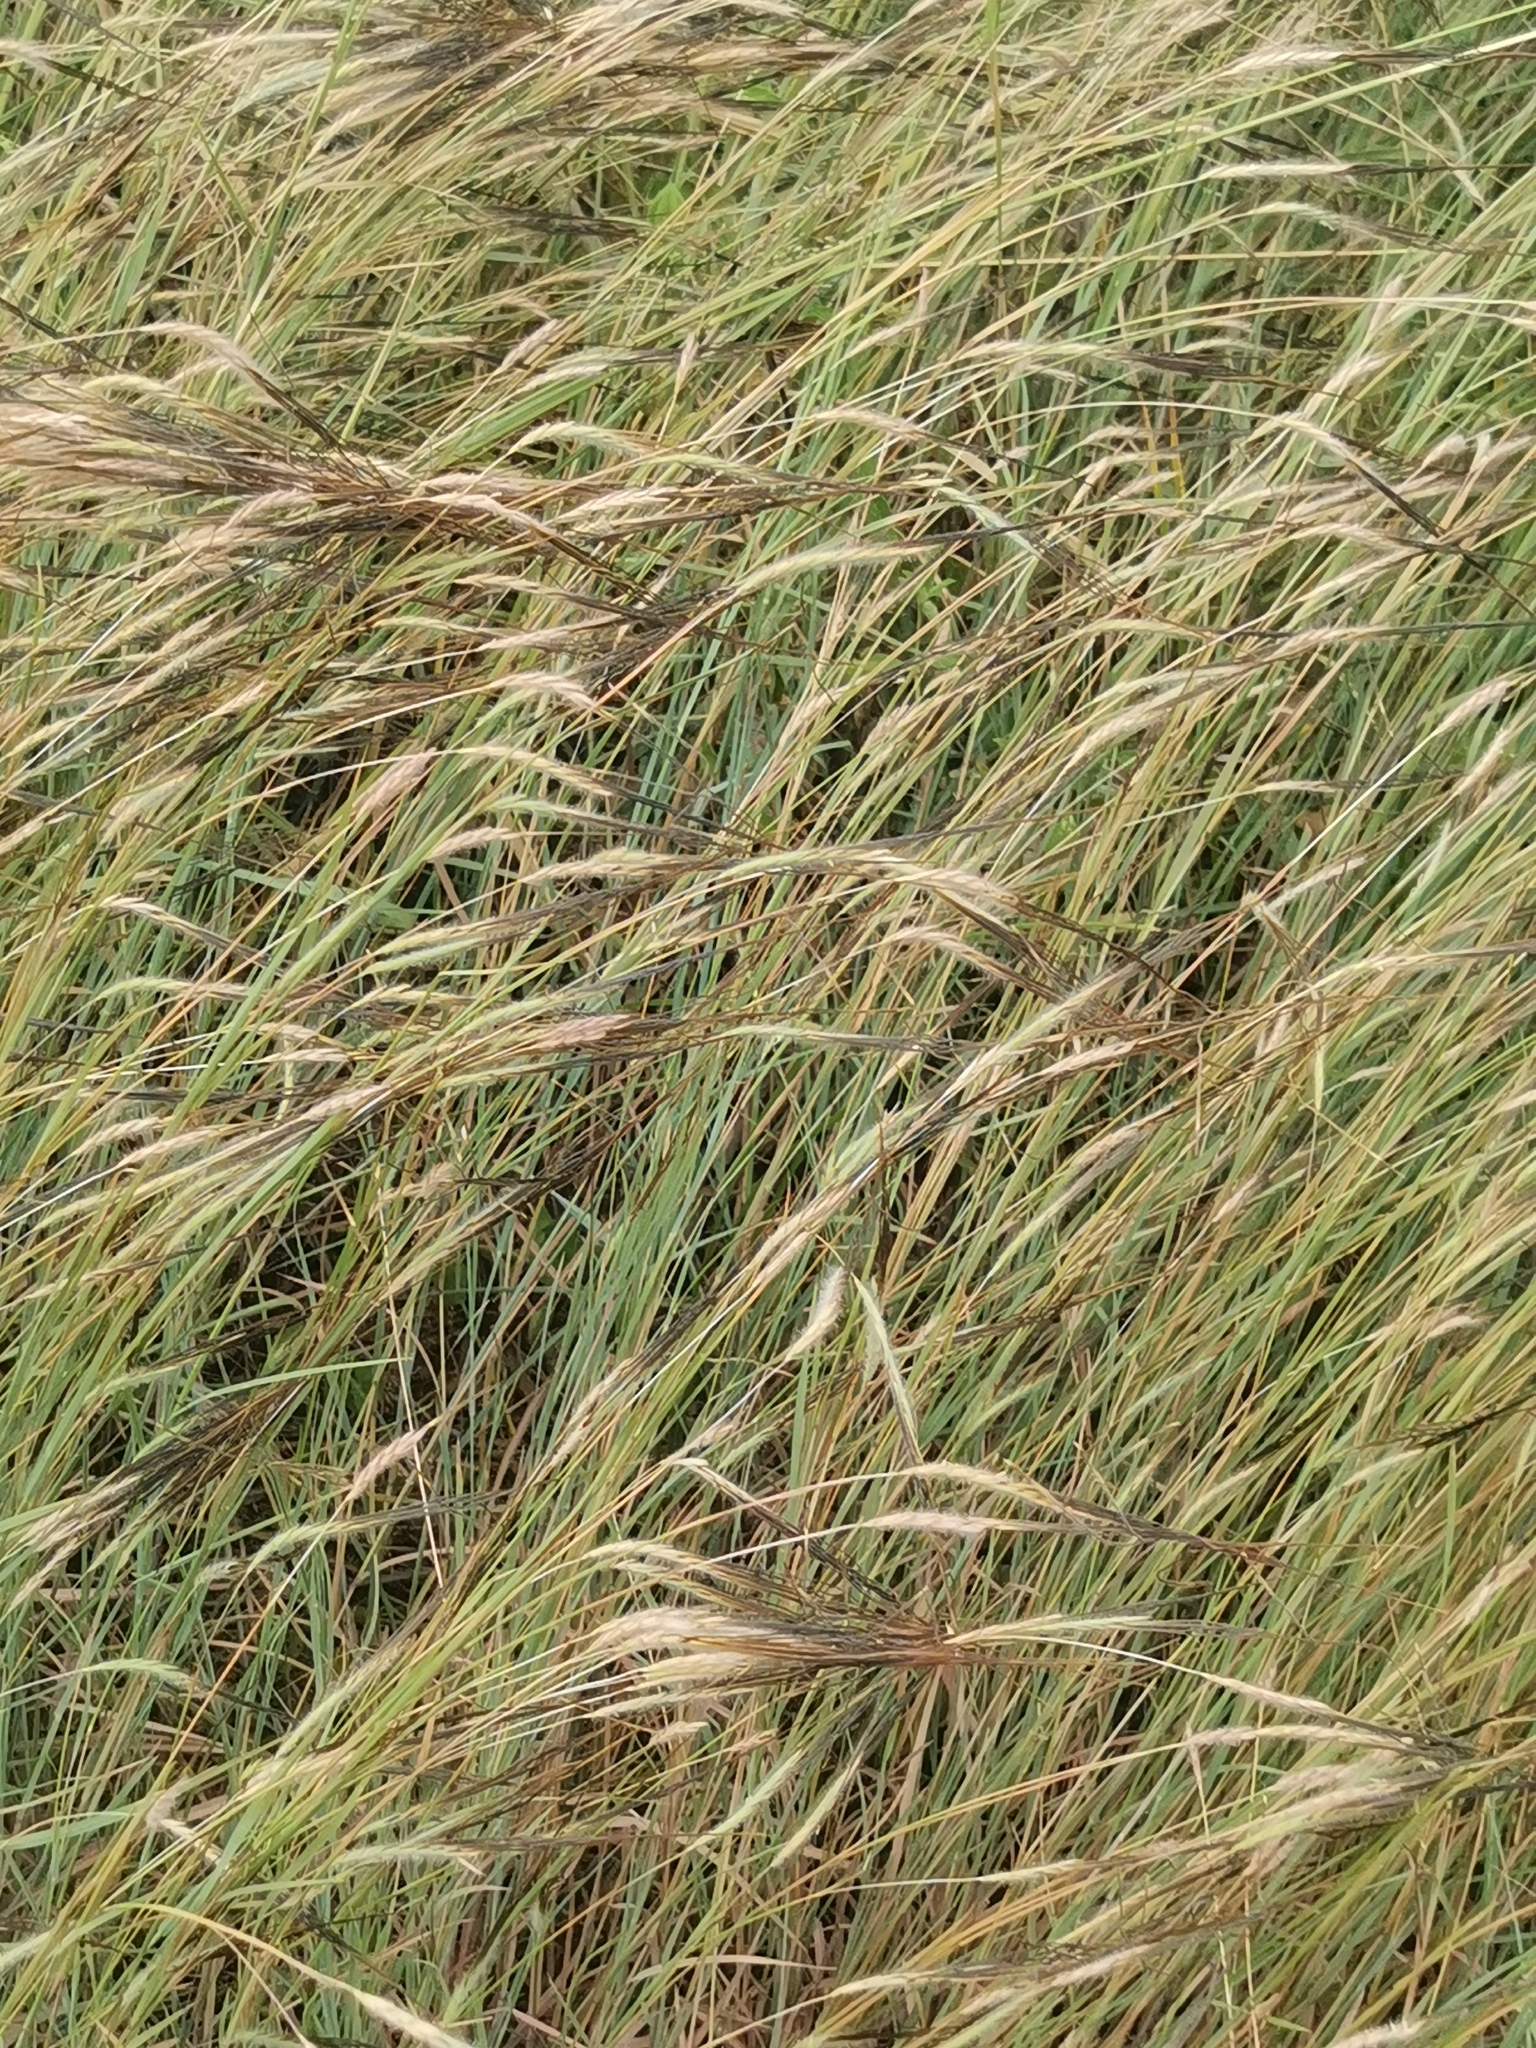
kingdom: Plantae
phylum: Tracheophyta
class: Liliopsida
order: Poales
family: Poaceae
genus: Heteropogon
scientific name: Heteropogon contortus
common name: Tanglehead
